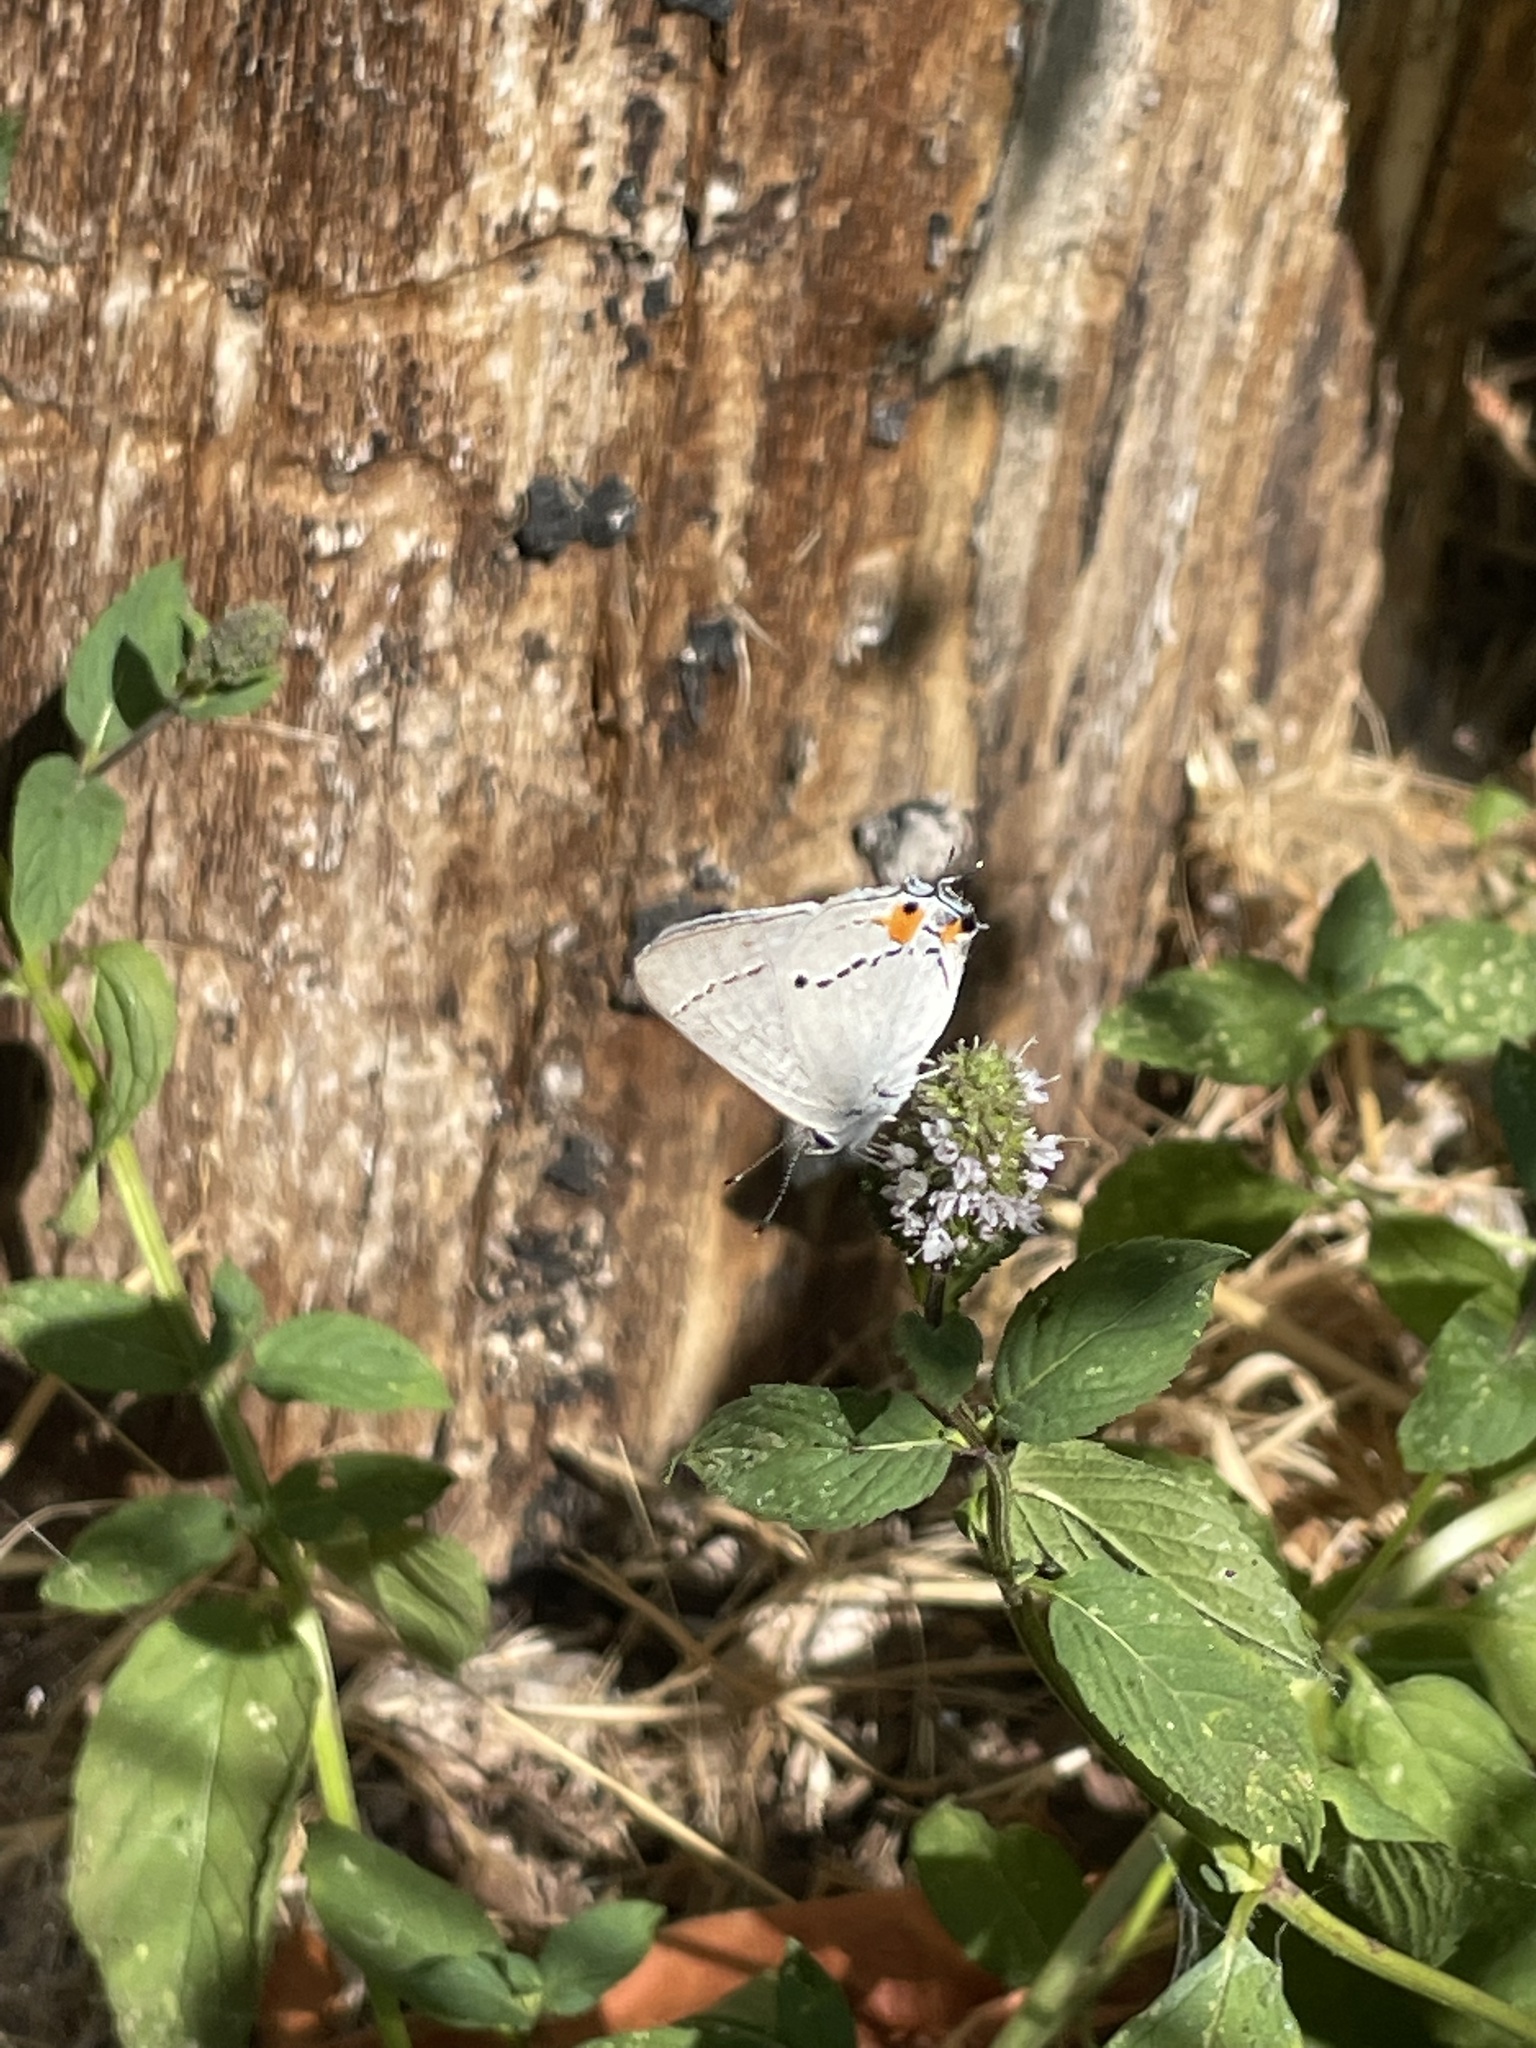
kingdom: Animalia
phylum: Arthropoda
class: Insecta
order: Lepidoptera
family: Lycaenidae
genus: Strymon
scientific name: Strymon melinus
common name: Gray hairstreak
